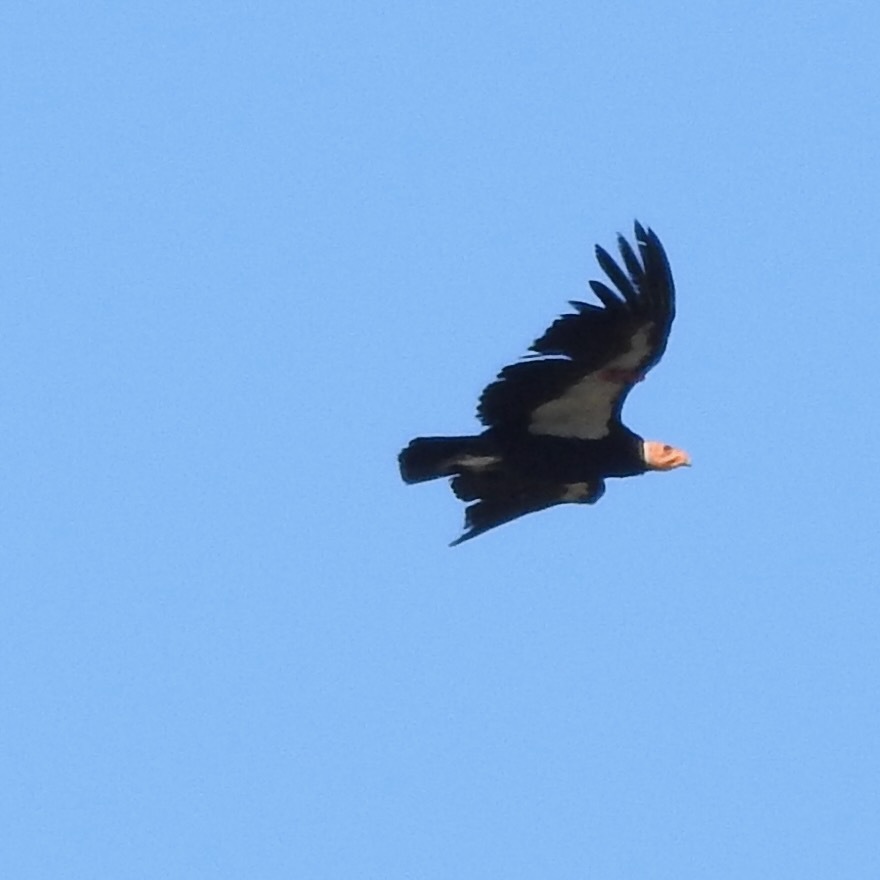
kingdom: Animalia
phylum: Chordata
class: Aves
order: Accipitriformes
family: Cathartidae
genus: Gymnogyps
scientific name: Gymnogyps californianus
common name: California condor
